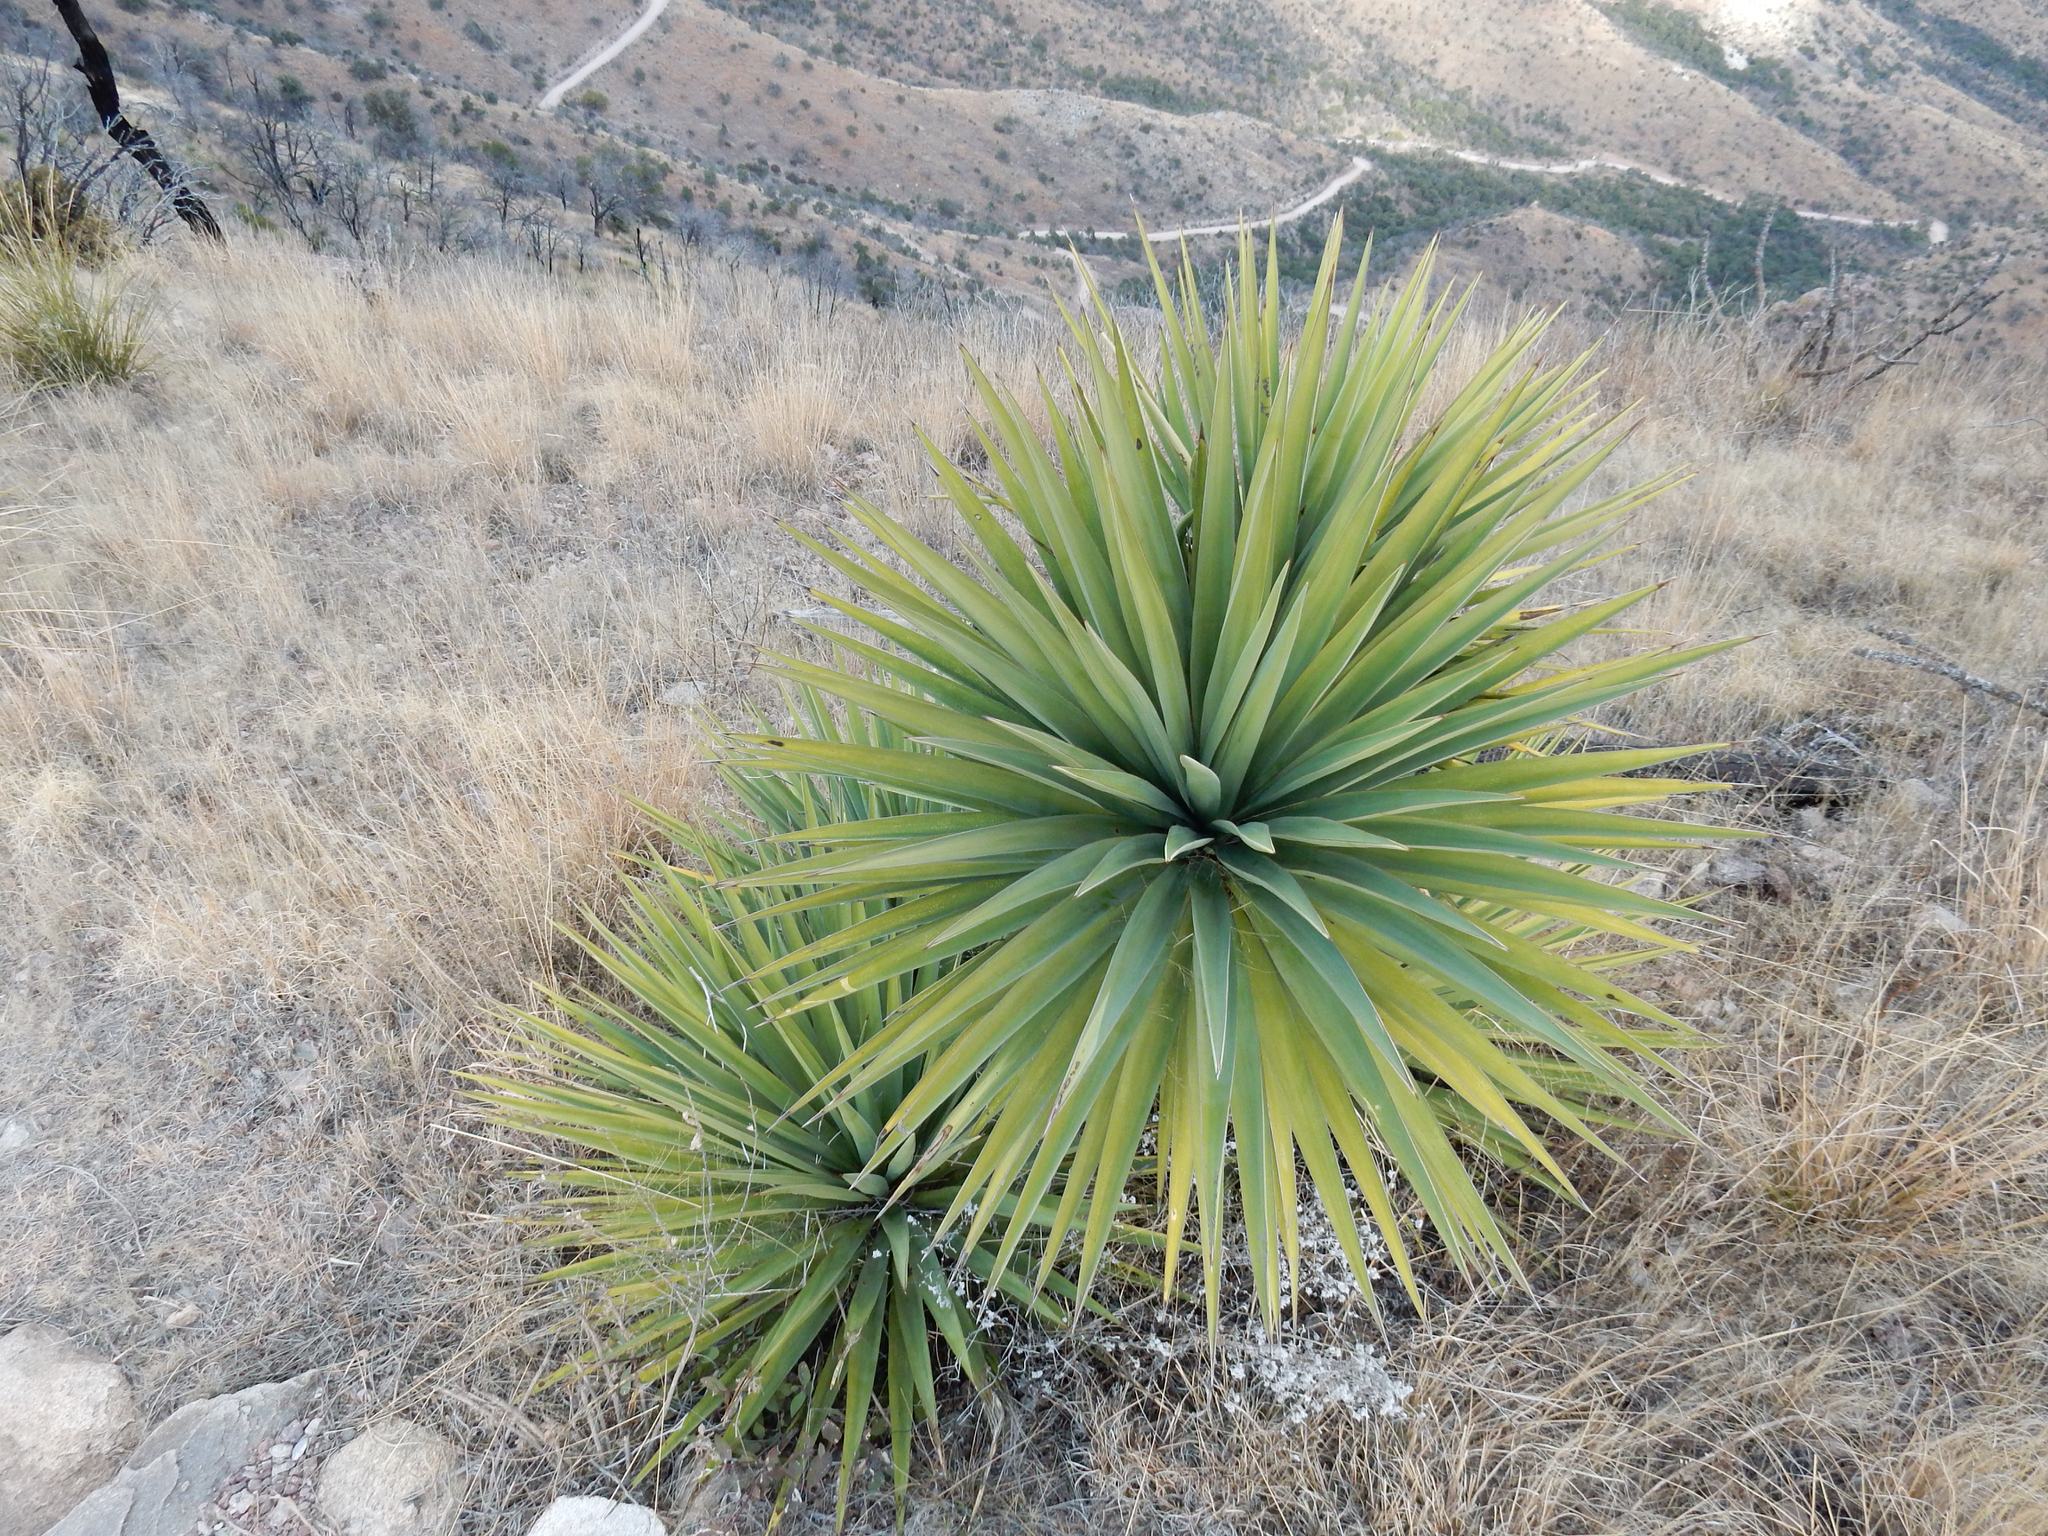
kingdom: Plantae
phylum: Tracheophyta
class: Liliopsida
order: Asparagales
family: Asparagaceae
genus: Yucca
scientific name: Yucca schottii
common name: Hoary yucca
